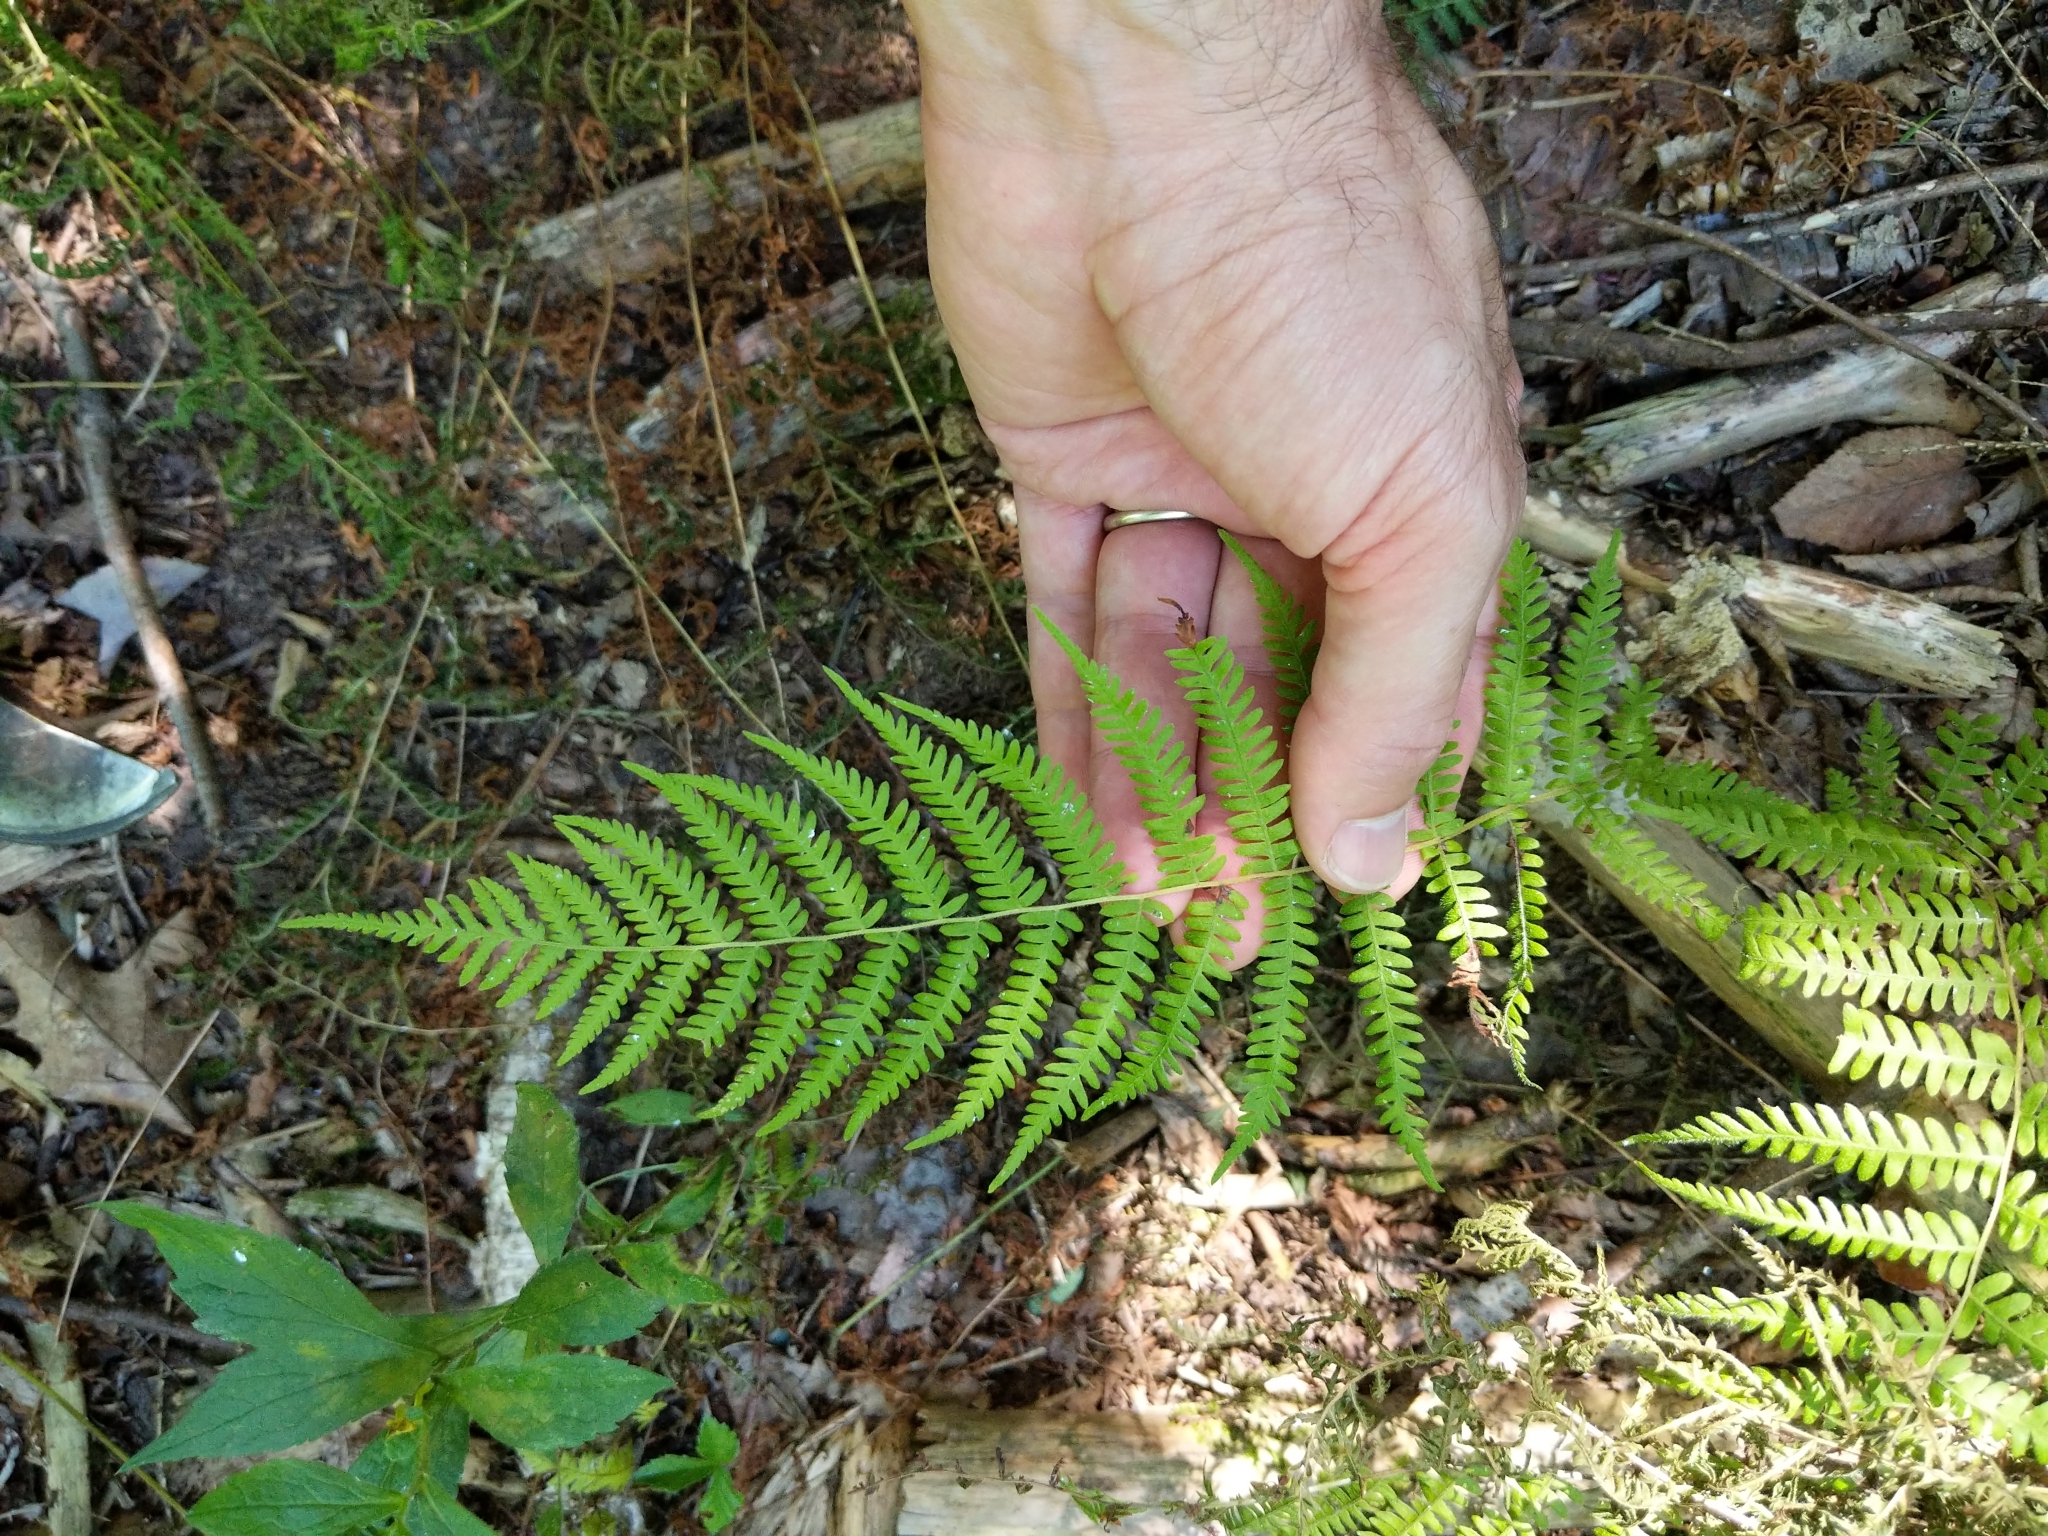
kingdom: Plantae
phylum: Tracheophyta
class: Polypodiopsida
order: Polypodiales
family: Thelypteridaceae
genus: Amauropelta
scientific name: Amauropelta noveboracensis
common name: New york fern
